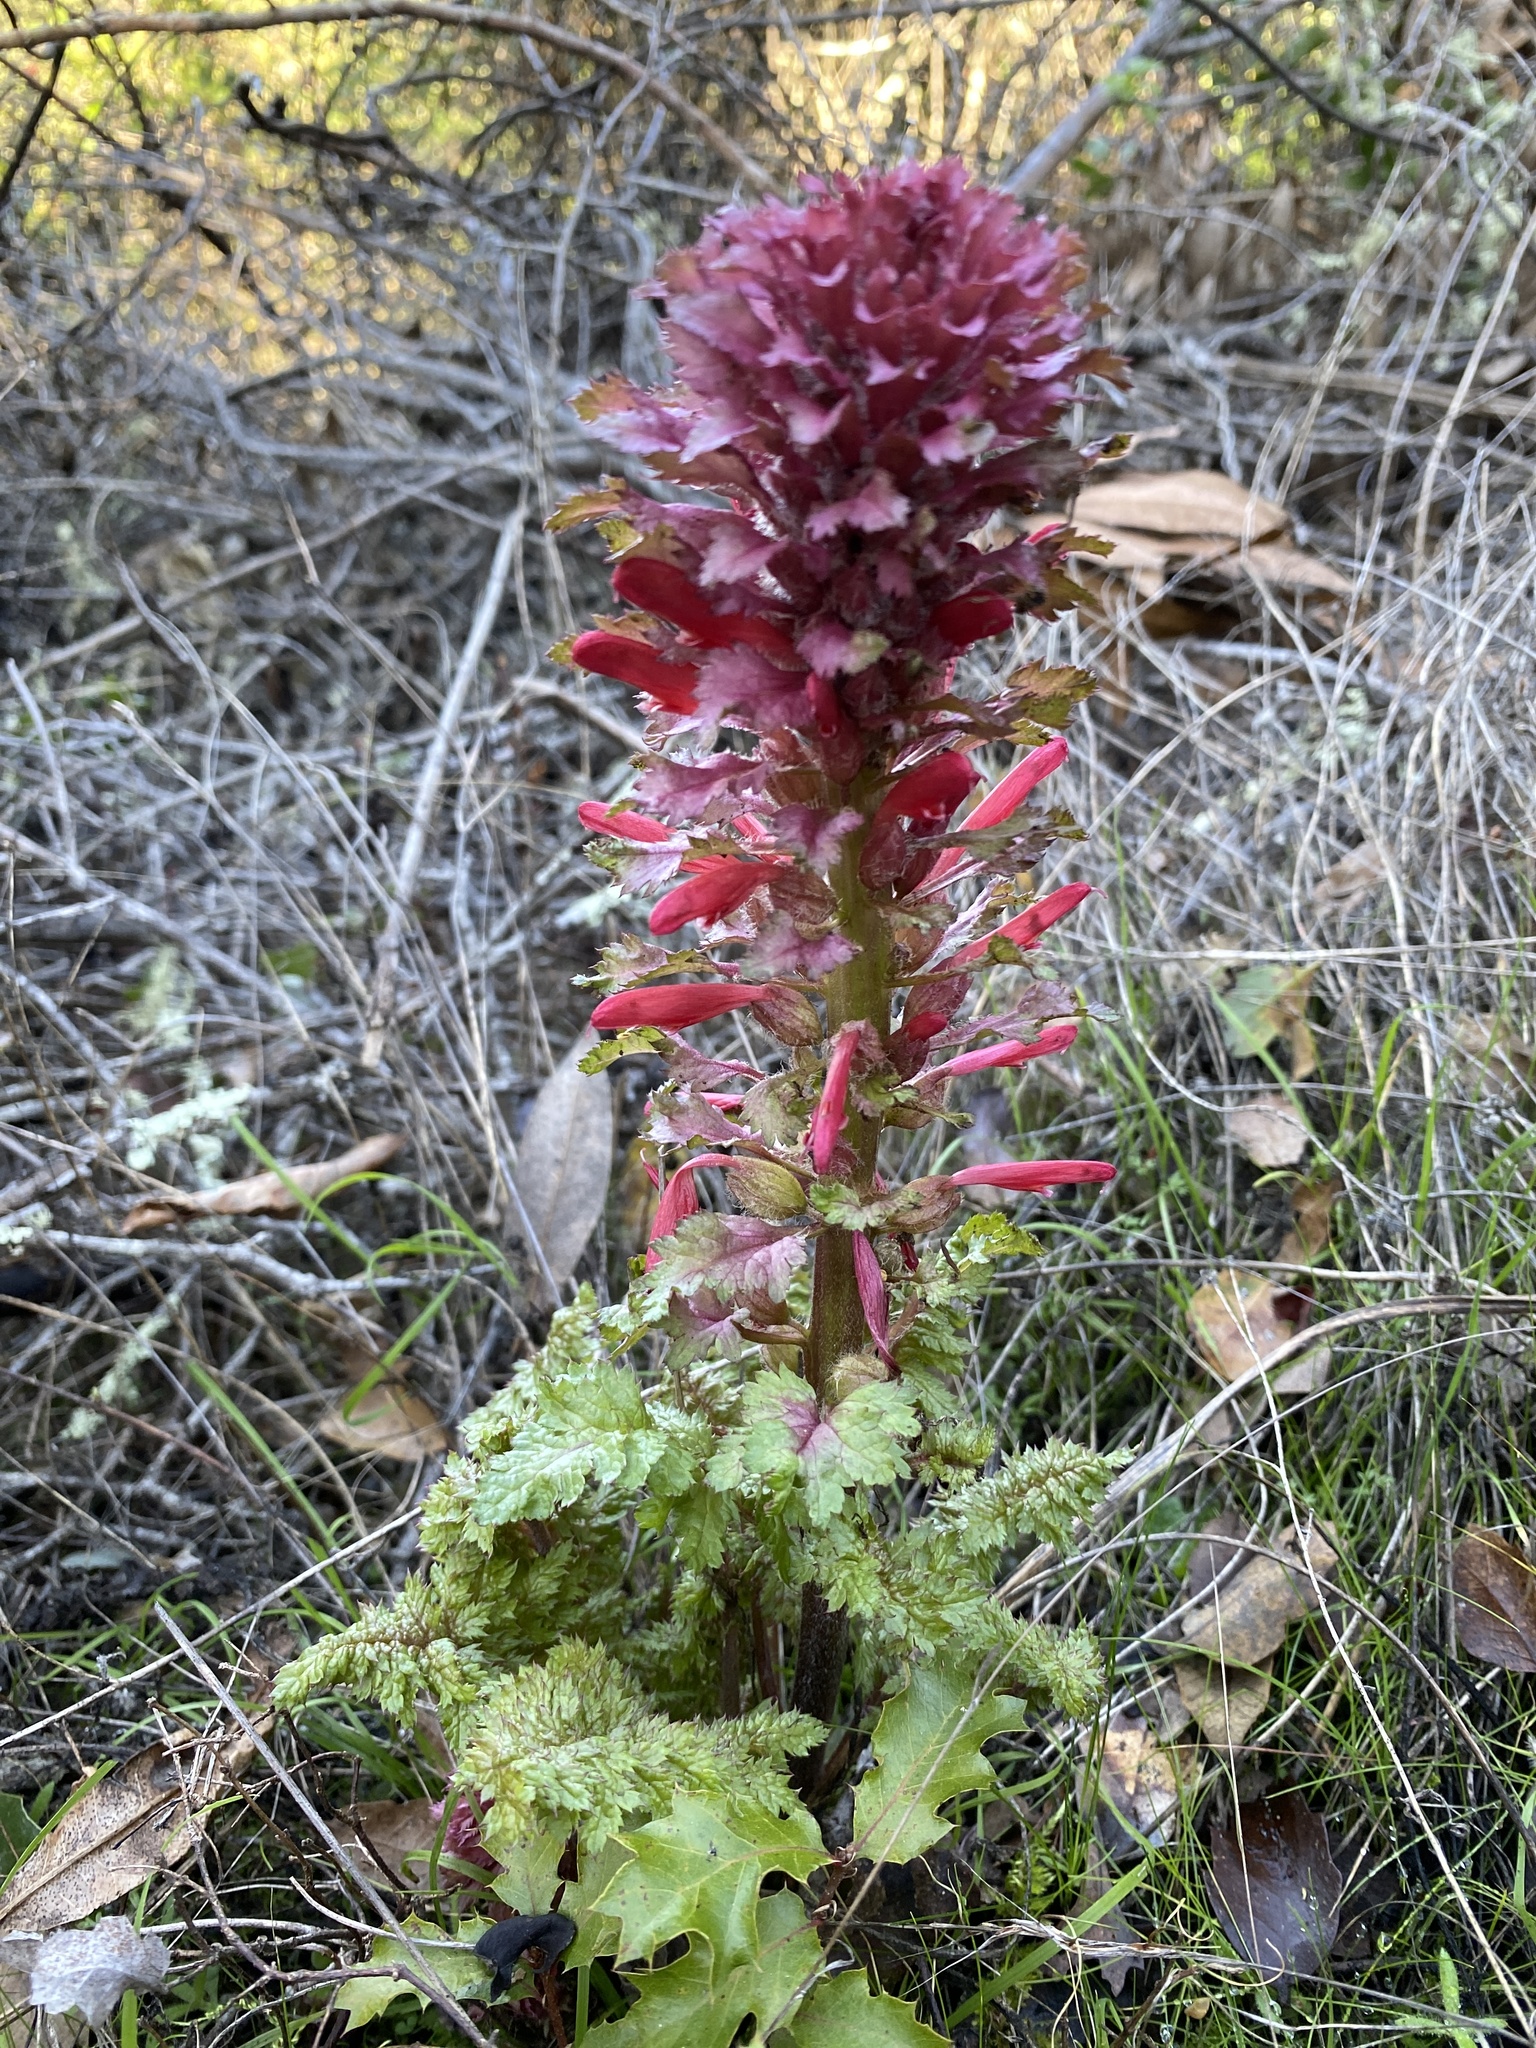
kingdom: Plantae
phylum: Tracheophyta
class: Magnoliopsida
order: Lamiales
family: Orobanchaceae
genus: Pedicularis
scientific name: Pedicularis densiflora
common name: Indian warrior
